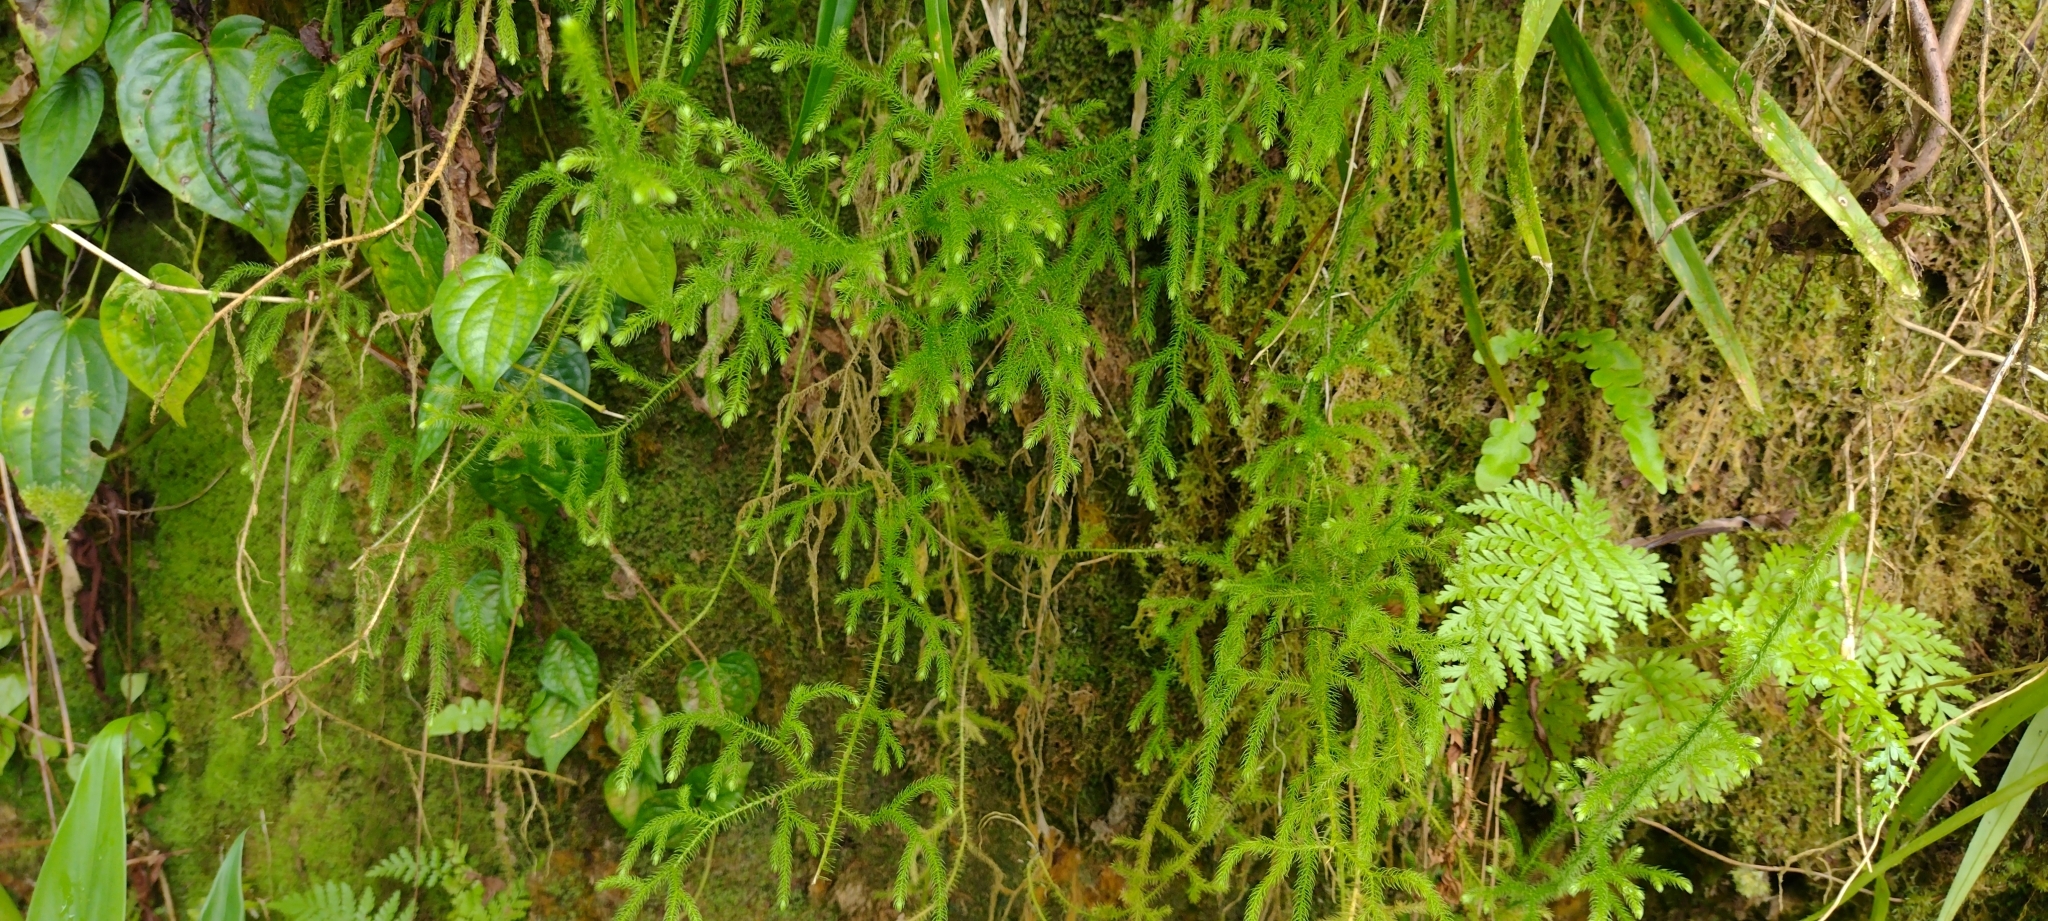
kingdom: Plantae
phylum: Tracheophyta
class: Lycopodiopsida
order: Lycopodiales
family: Lycopodiaceae
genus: Palhinhaea
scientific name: Palhinhaea cernua
